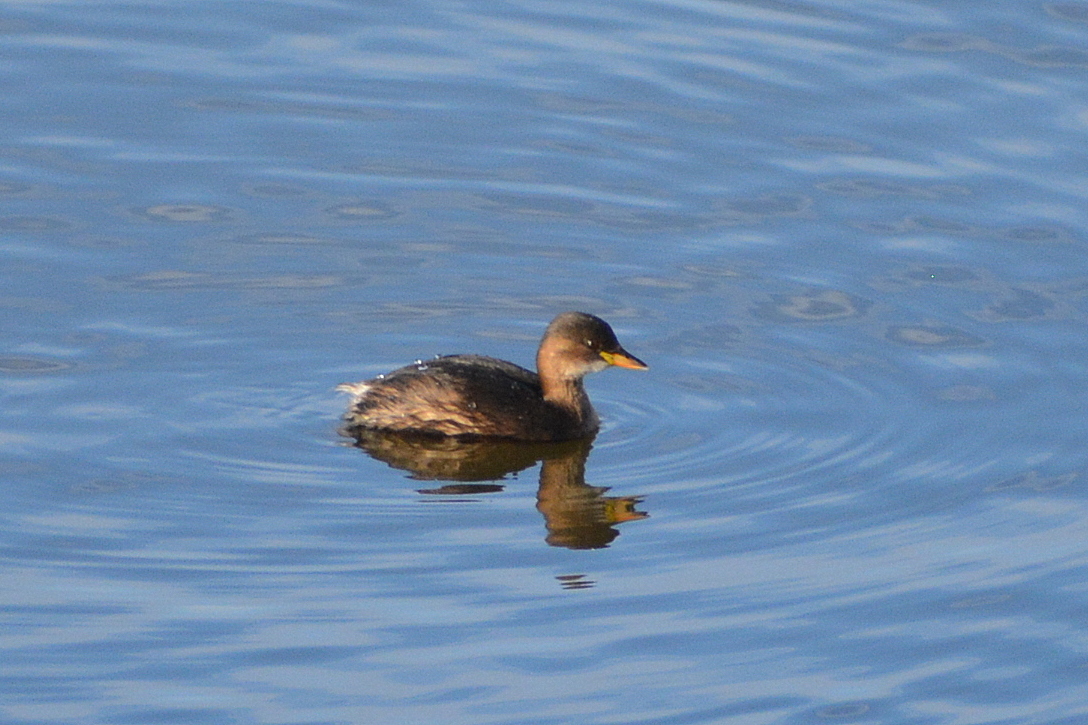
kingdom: Animalia
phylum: Chordata
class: Aves
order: Podicipediformes
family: Podicipedidae
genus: Tachybaptus
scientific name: Tachybaptus ruficollis
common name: Little grebe
